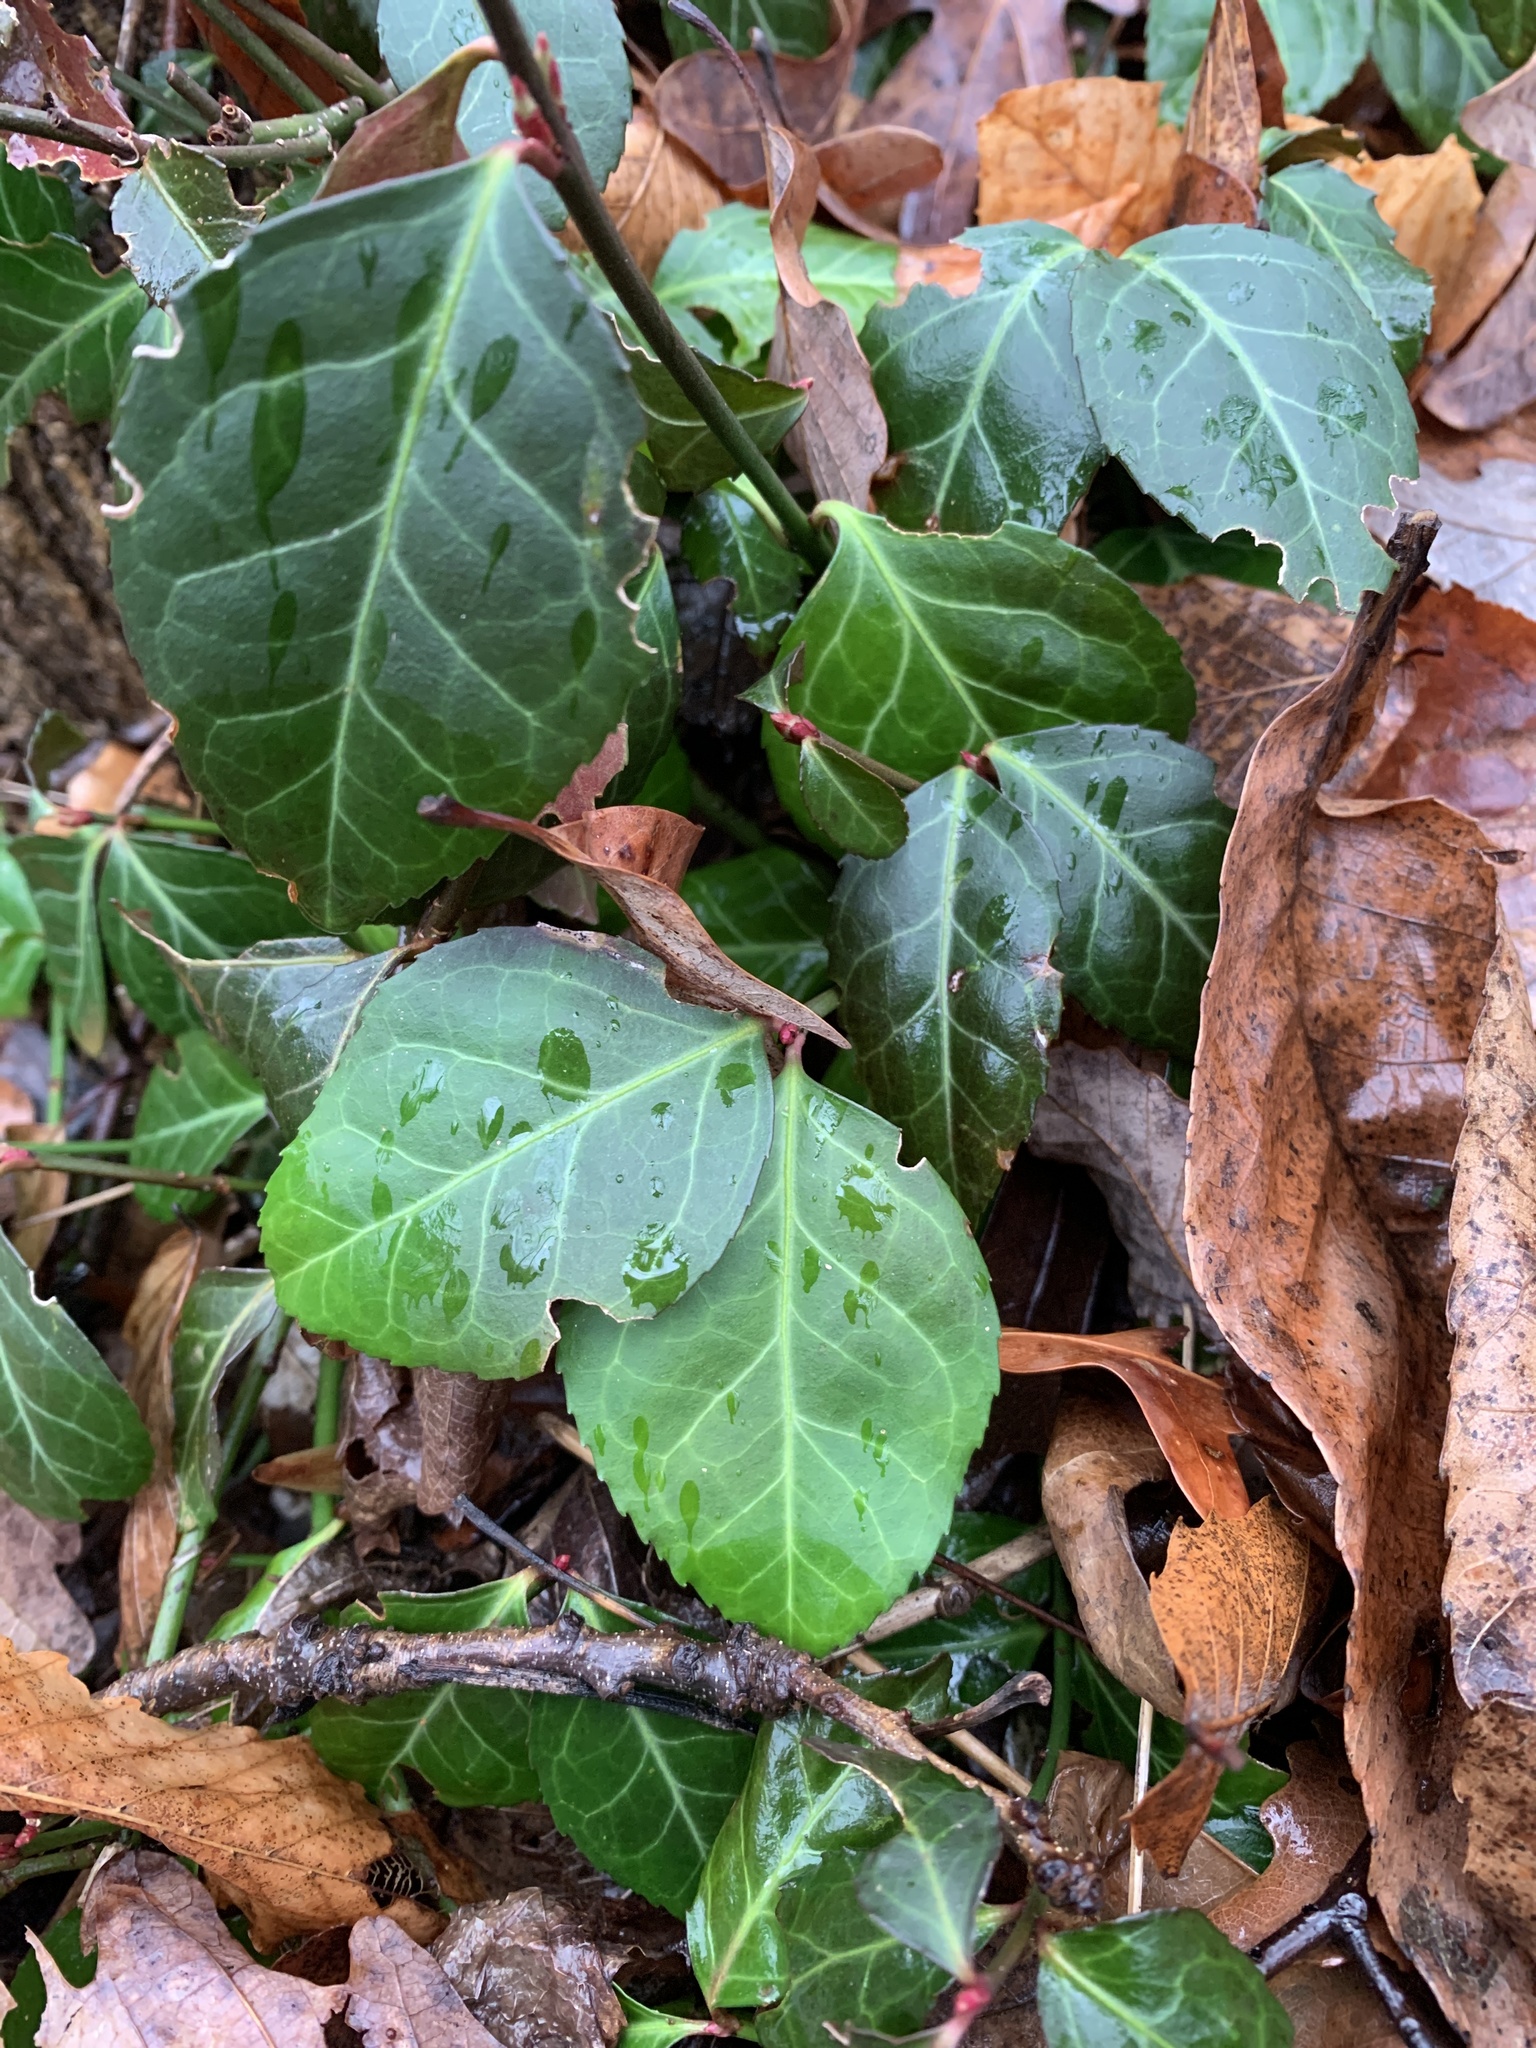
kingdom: Plantae
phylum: Tracheophyta
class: Magnoliopsida
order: Celastrales
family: Celastraceae
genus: Euonymus
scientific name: Euonymus fortunei
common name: Climbing euonymus
